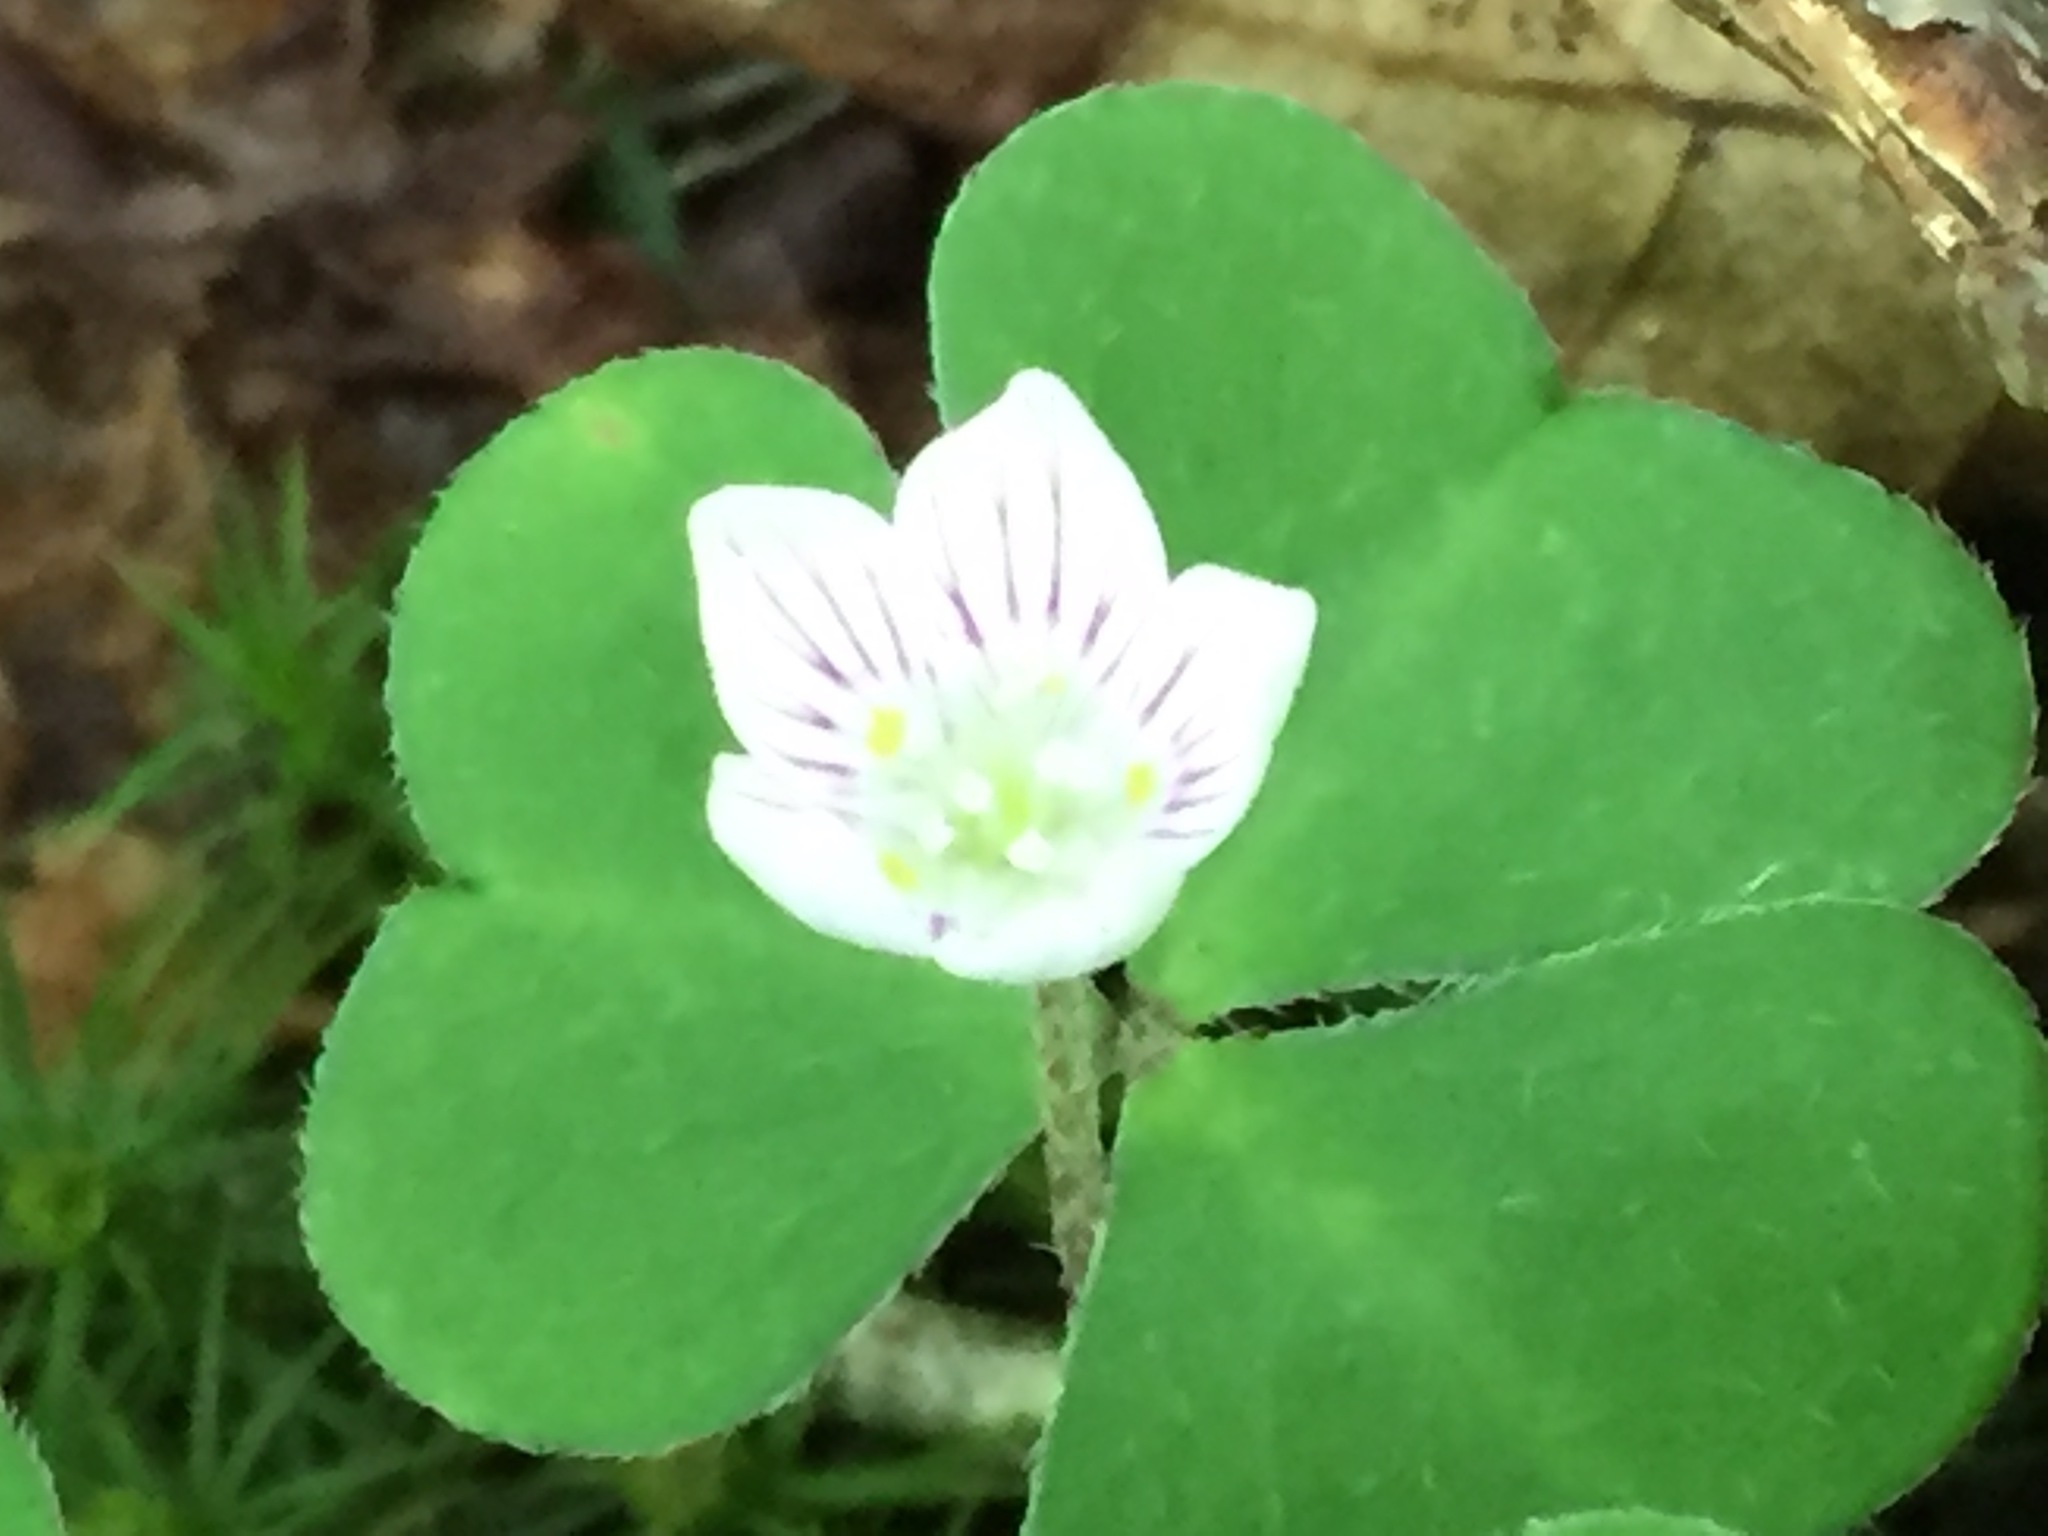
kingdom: Plantae
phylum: Tracheophyta
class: Magnoliopsida
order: Oxalidales
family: Oxalidaceae
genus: Oxalis
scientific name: Oxalis montana
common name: American wood-sorrel
